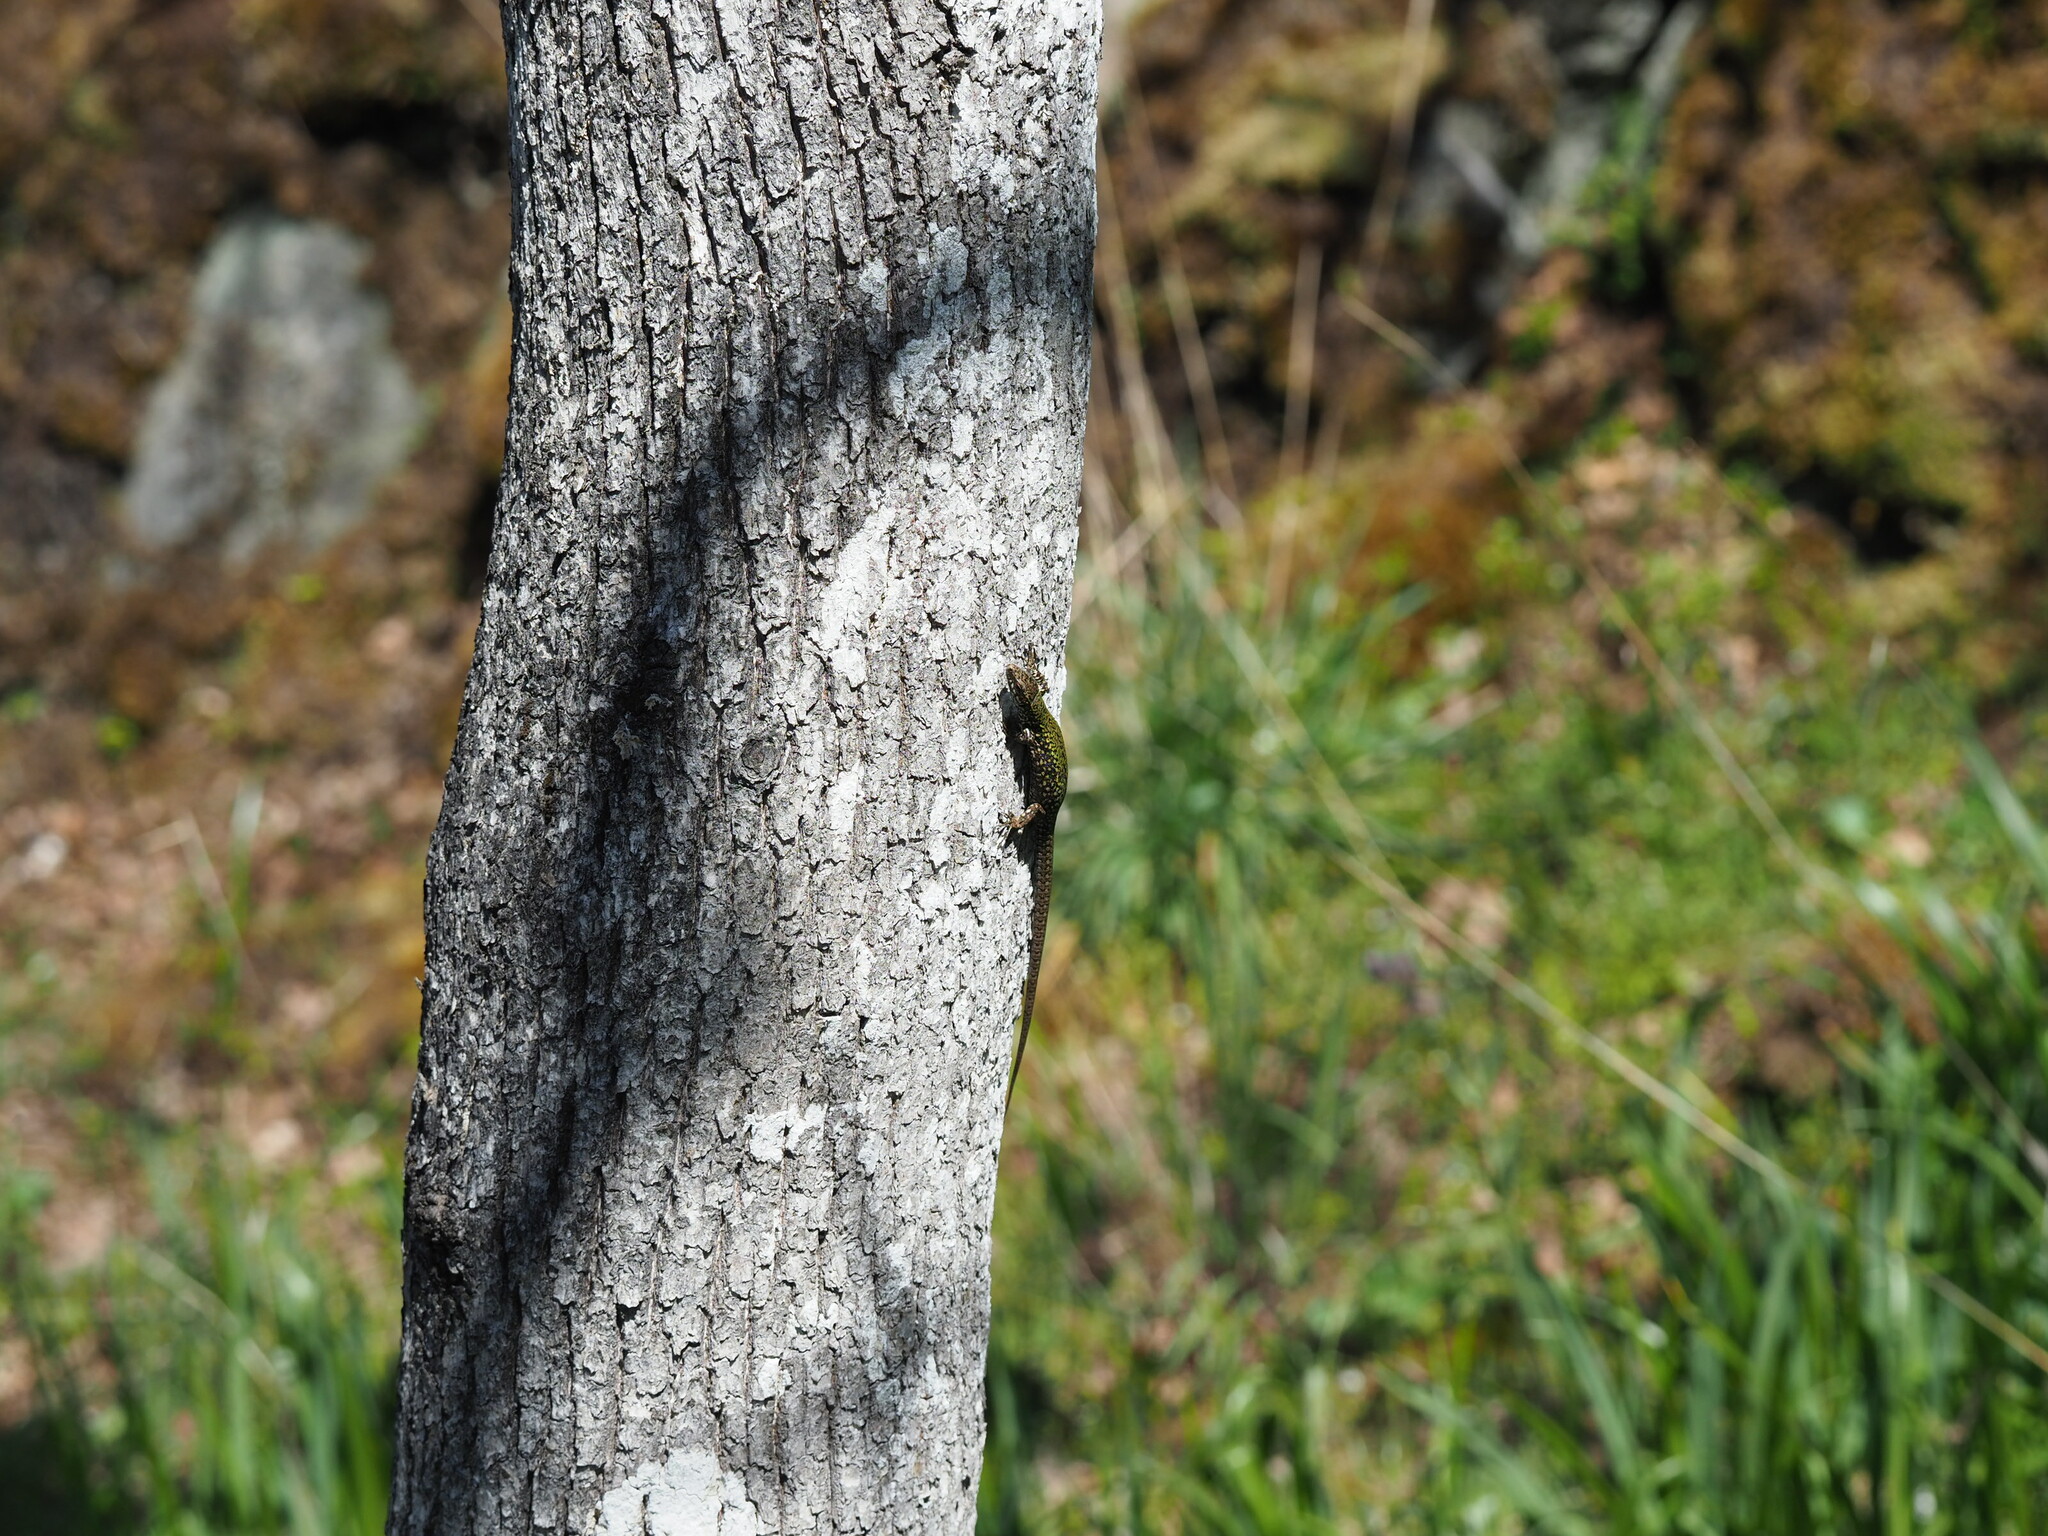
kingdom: Animalia
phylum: Chordata
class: Squamata
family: Lacertidae
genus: Podarcis
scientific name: Podarcis muralis
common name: Common wall lizard
